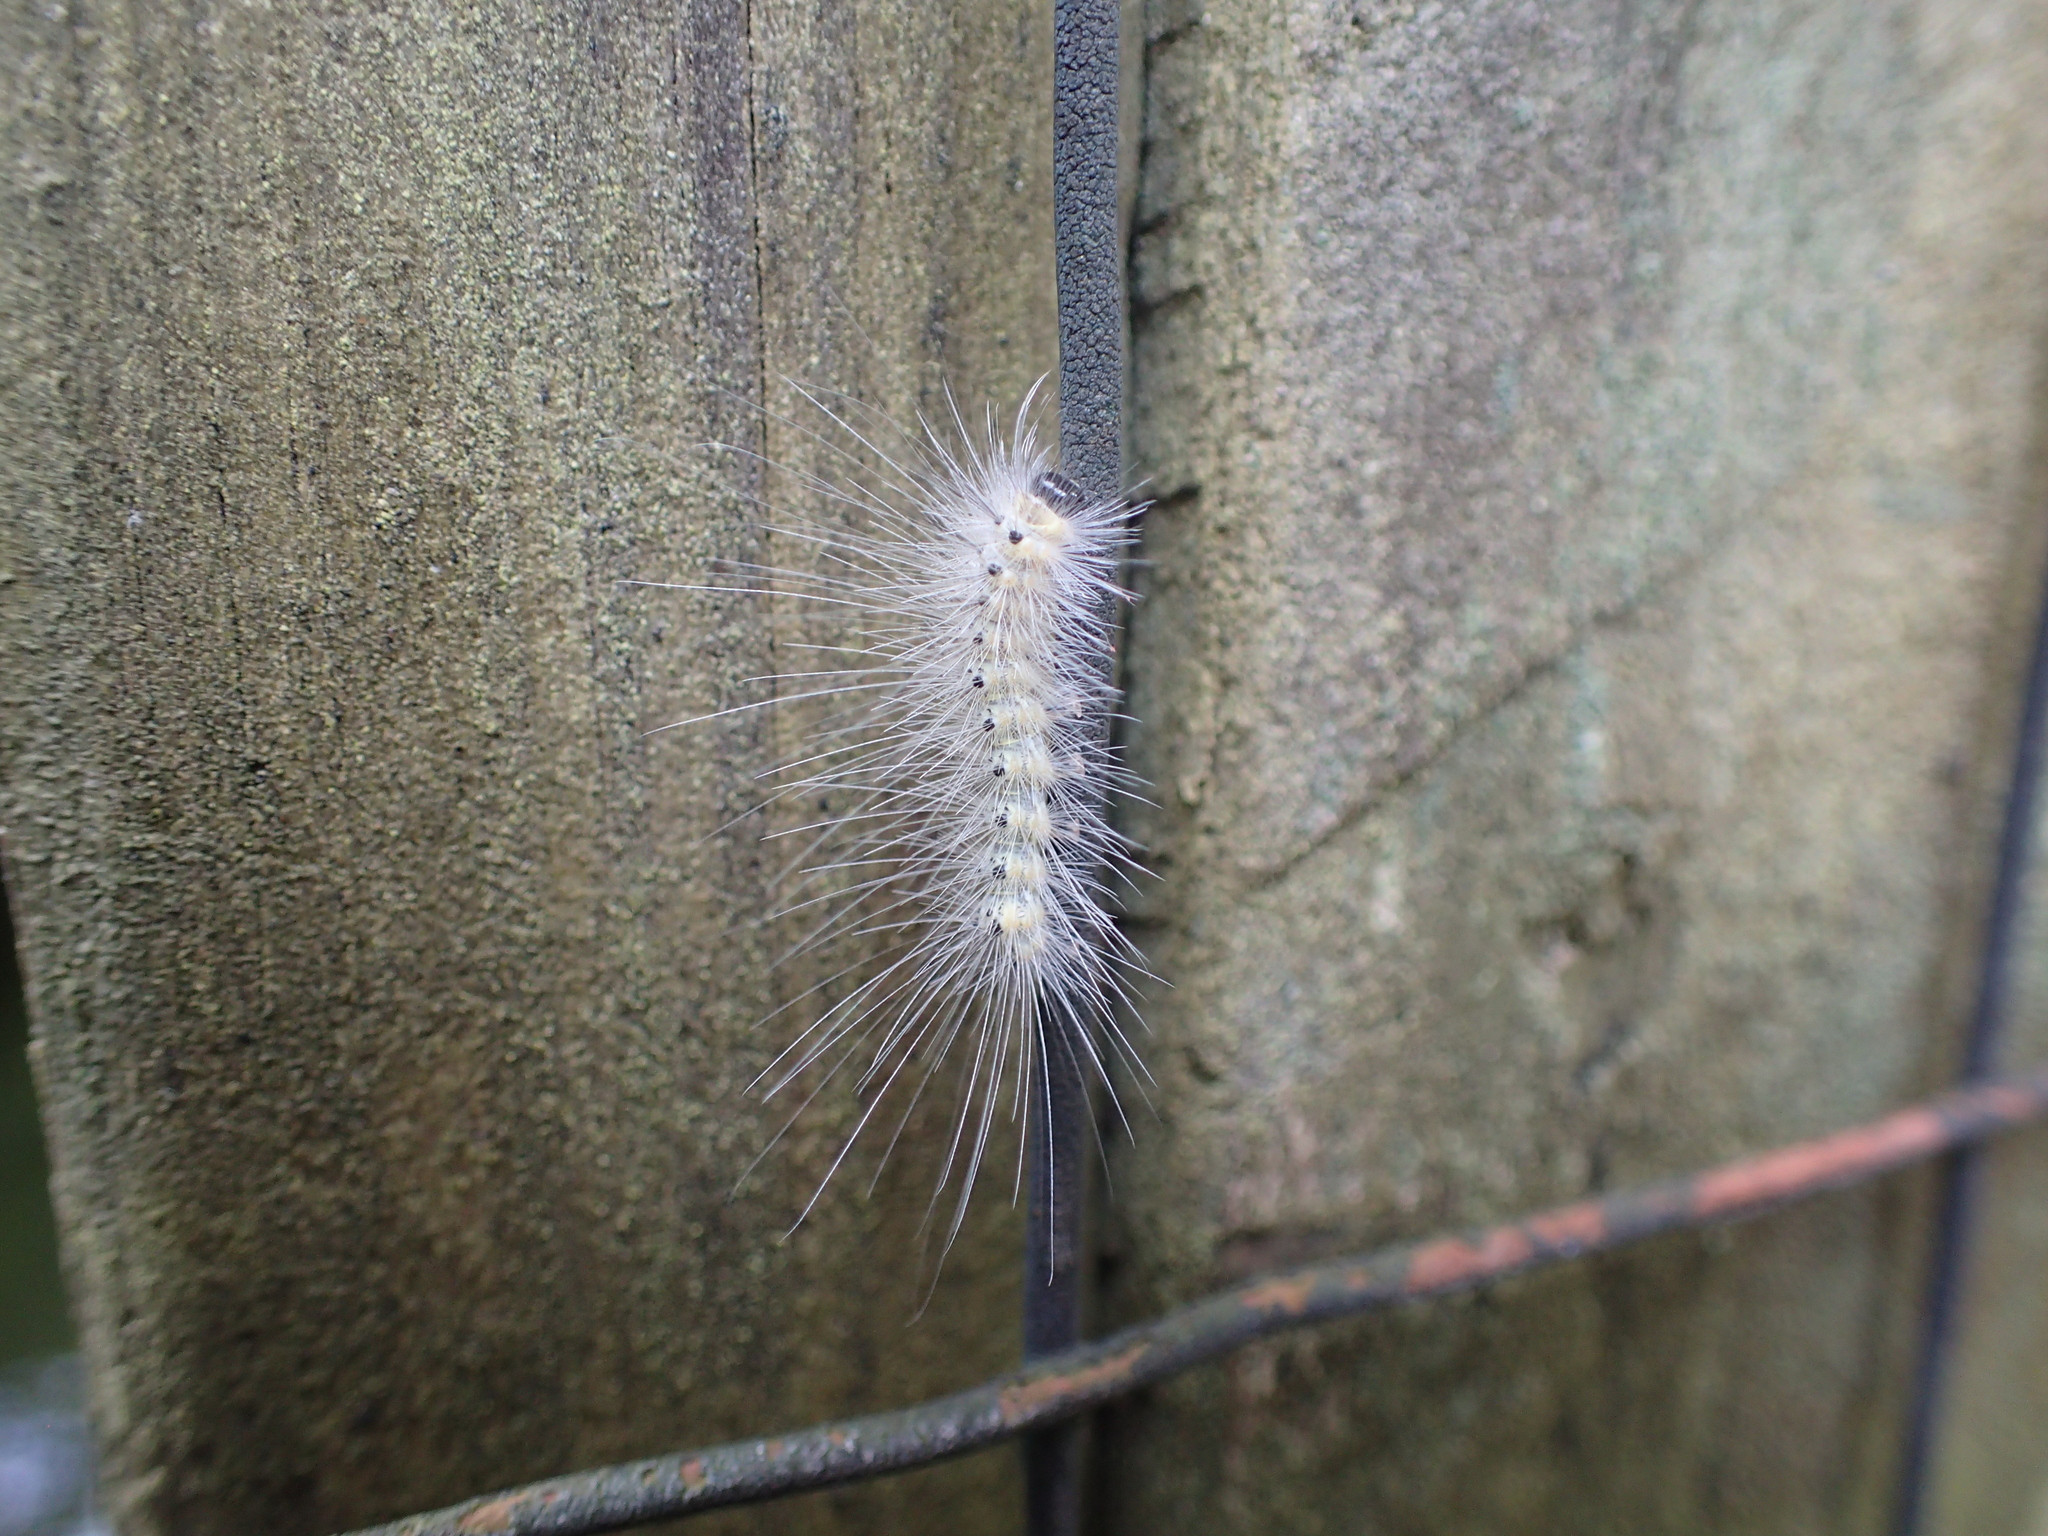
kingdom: Animalia
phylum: Arthropoda
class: Insecta
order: Lepidoptera
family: Erebidae
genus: Hyphantria
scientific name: Hyphantria cunea
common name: American white moth
